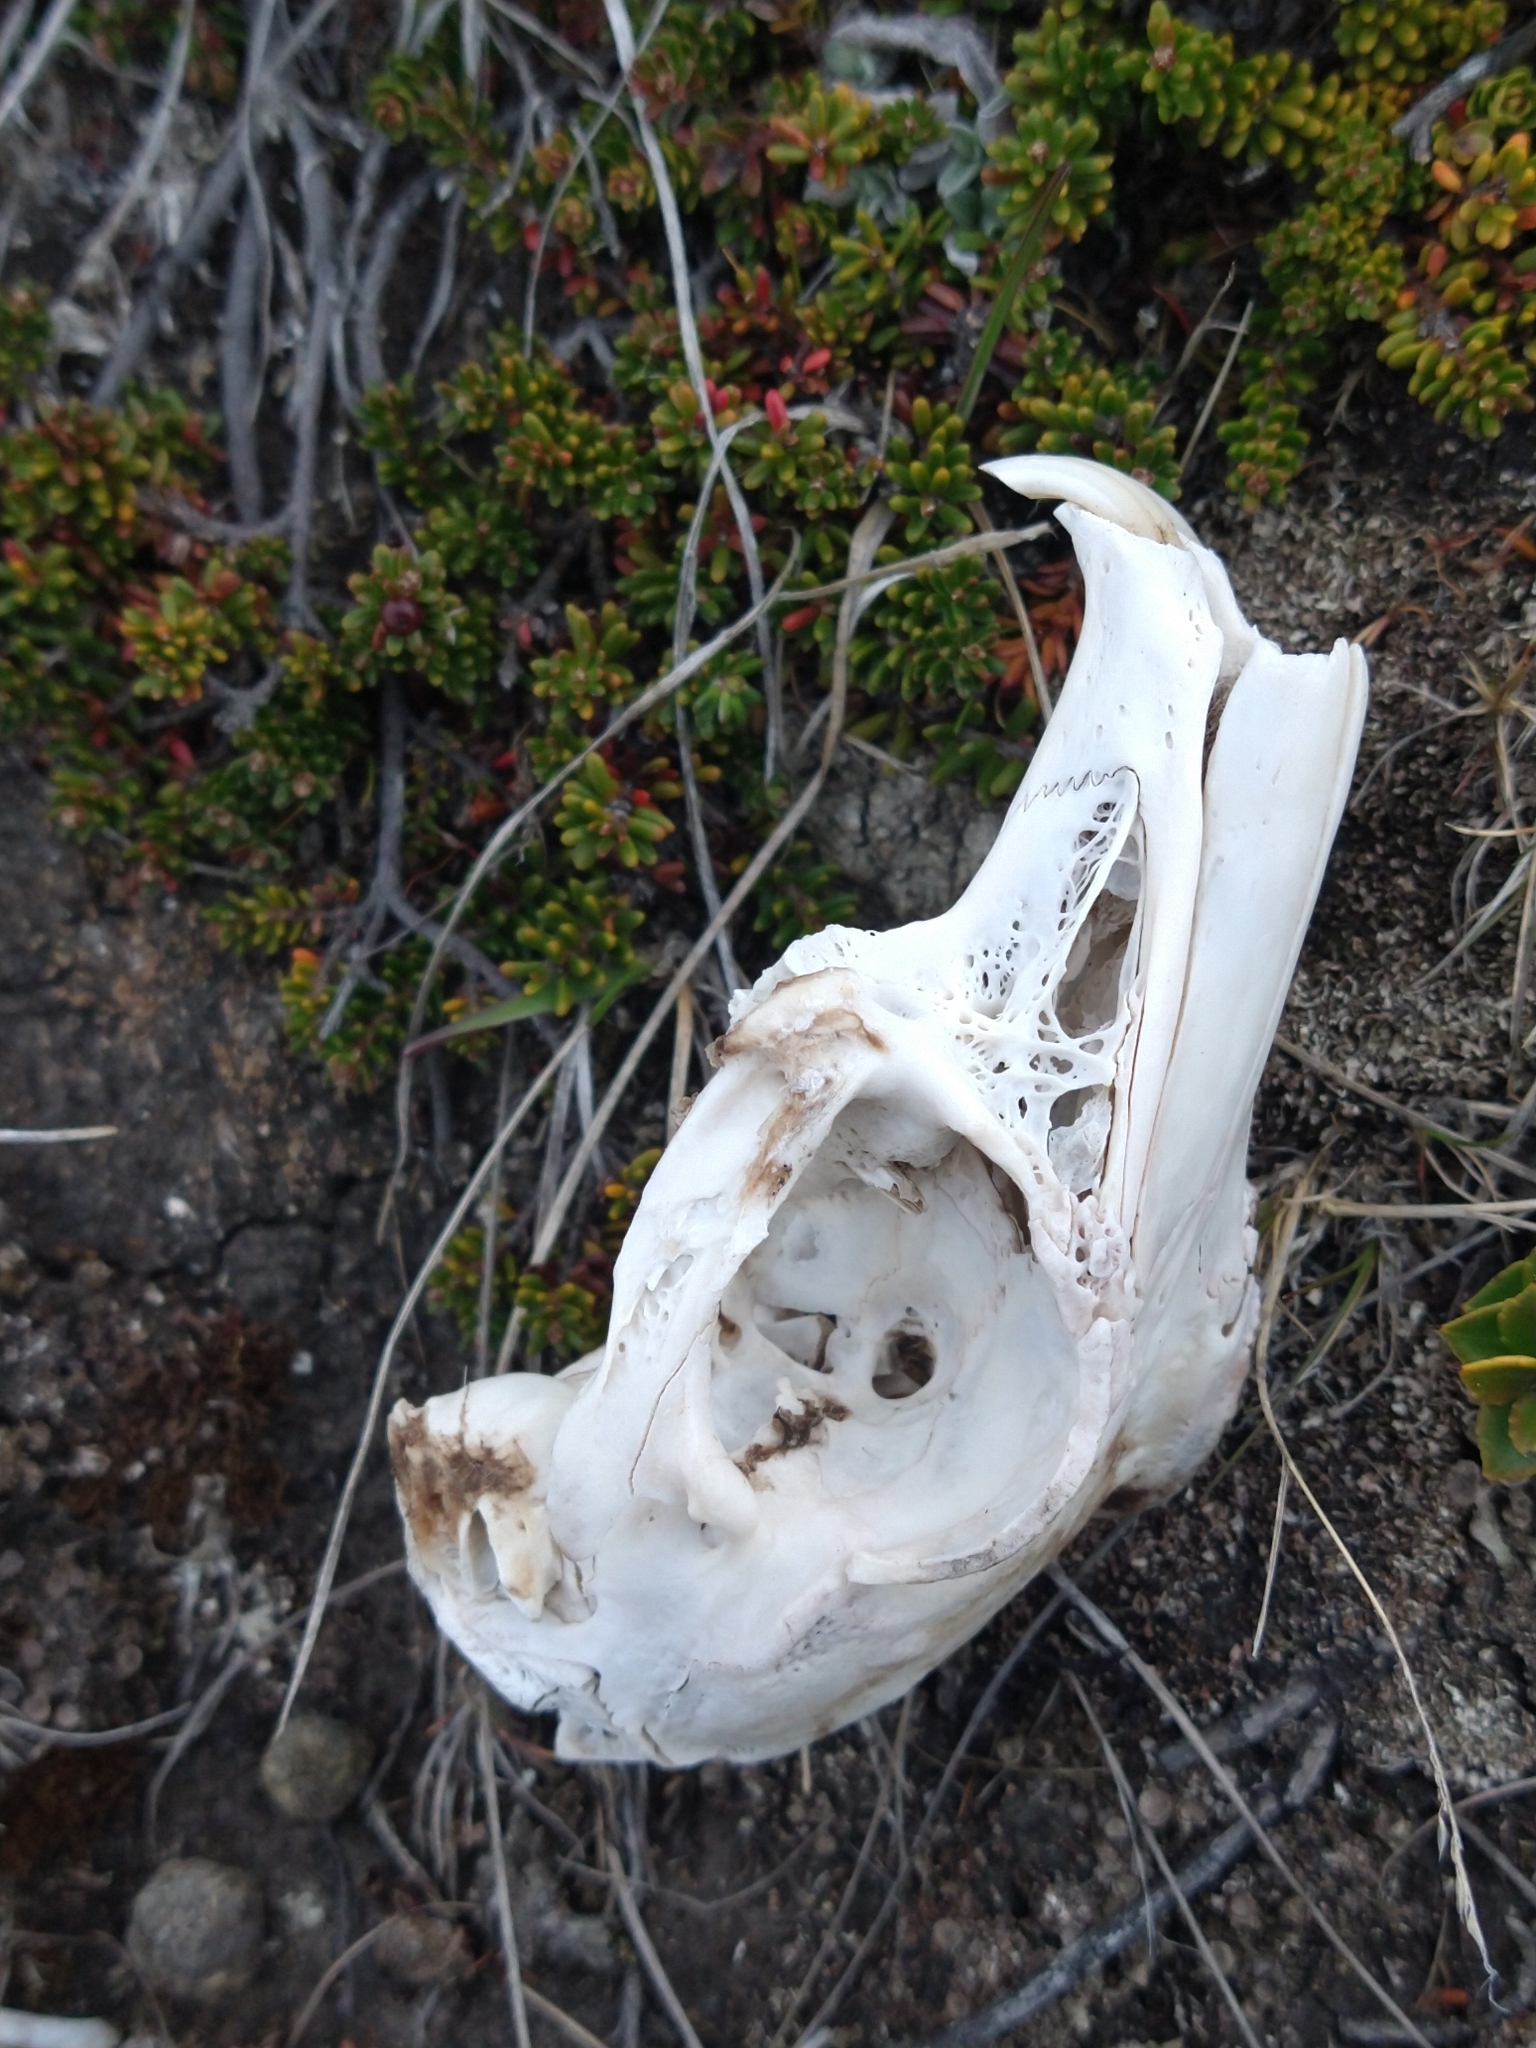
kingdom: Animalia
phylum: Chordata
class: Mammalia
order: Lagomorpha
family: Leporidae
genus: Oryctolagus
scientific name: Oryctolagus cuniculus
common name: European rabbit
